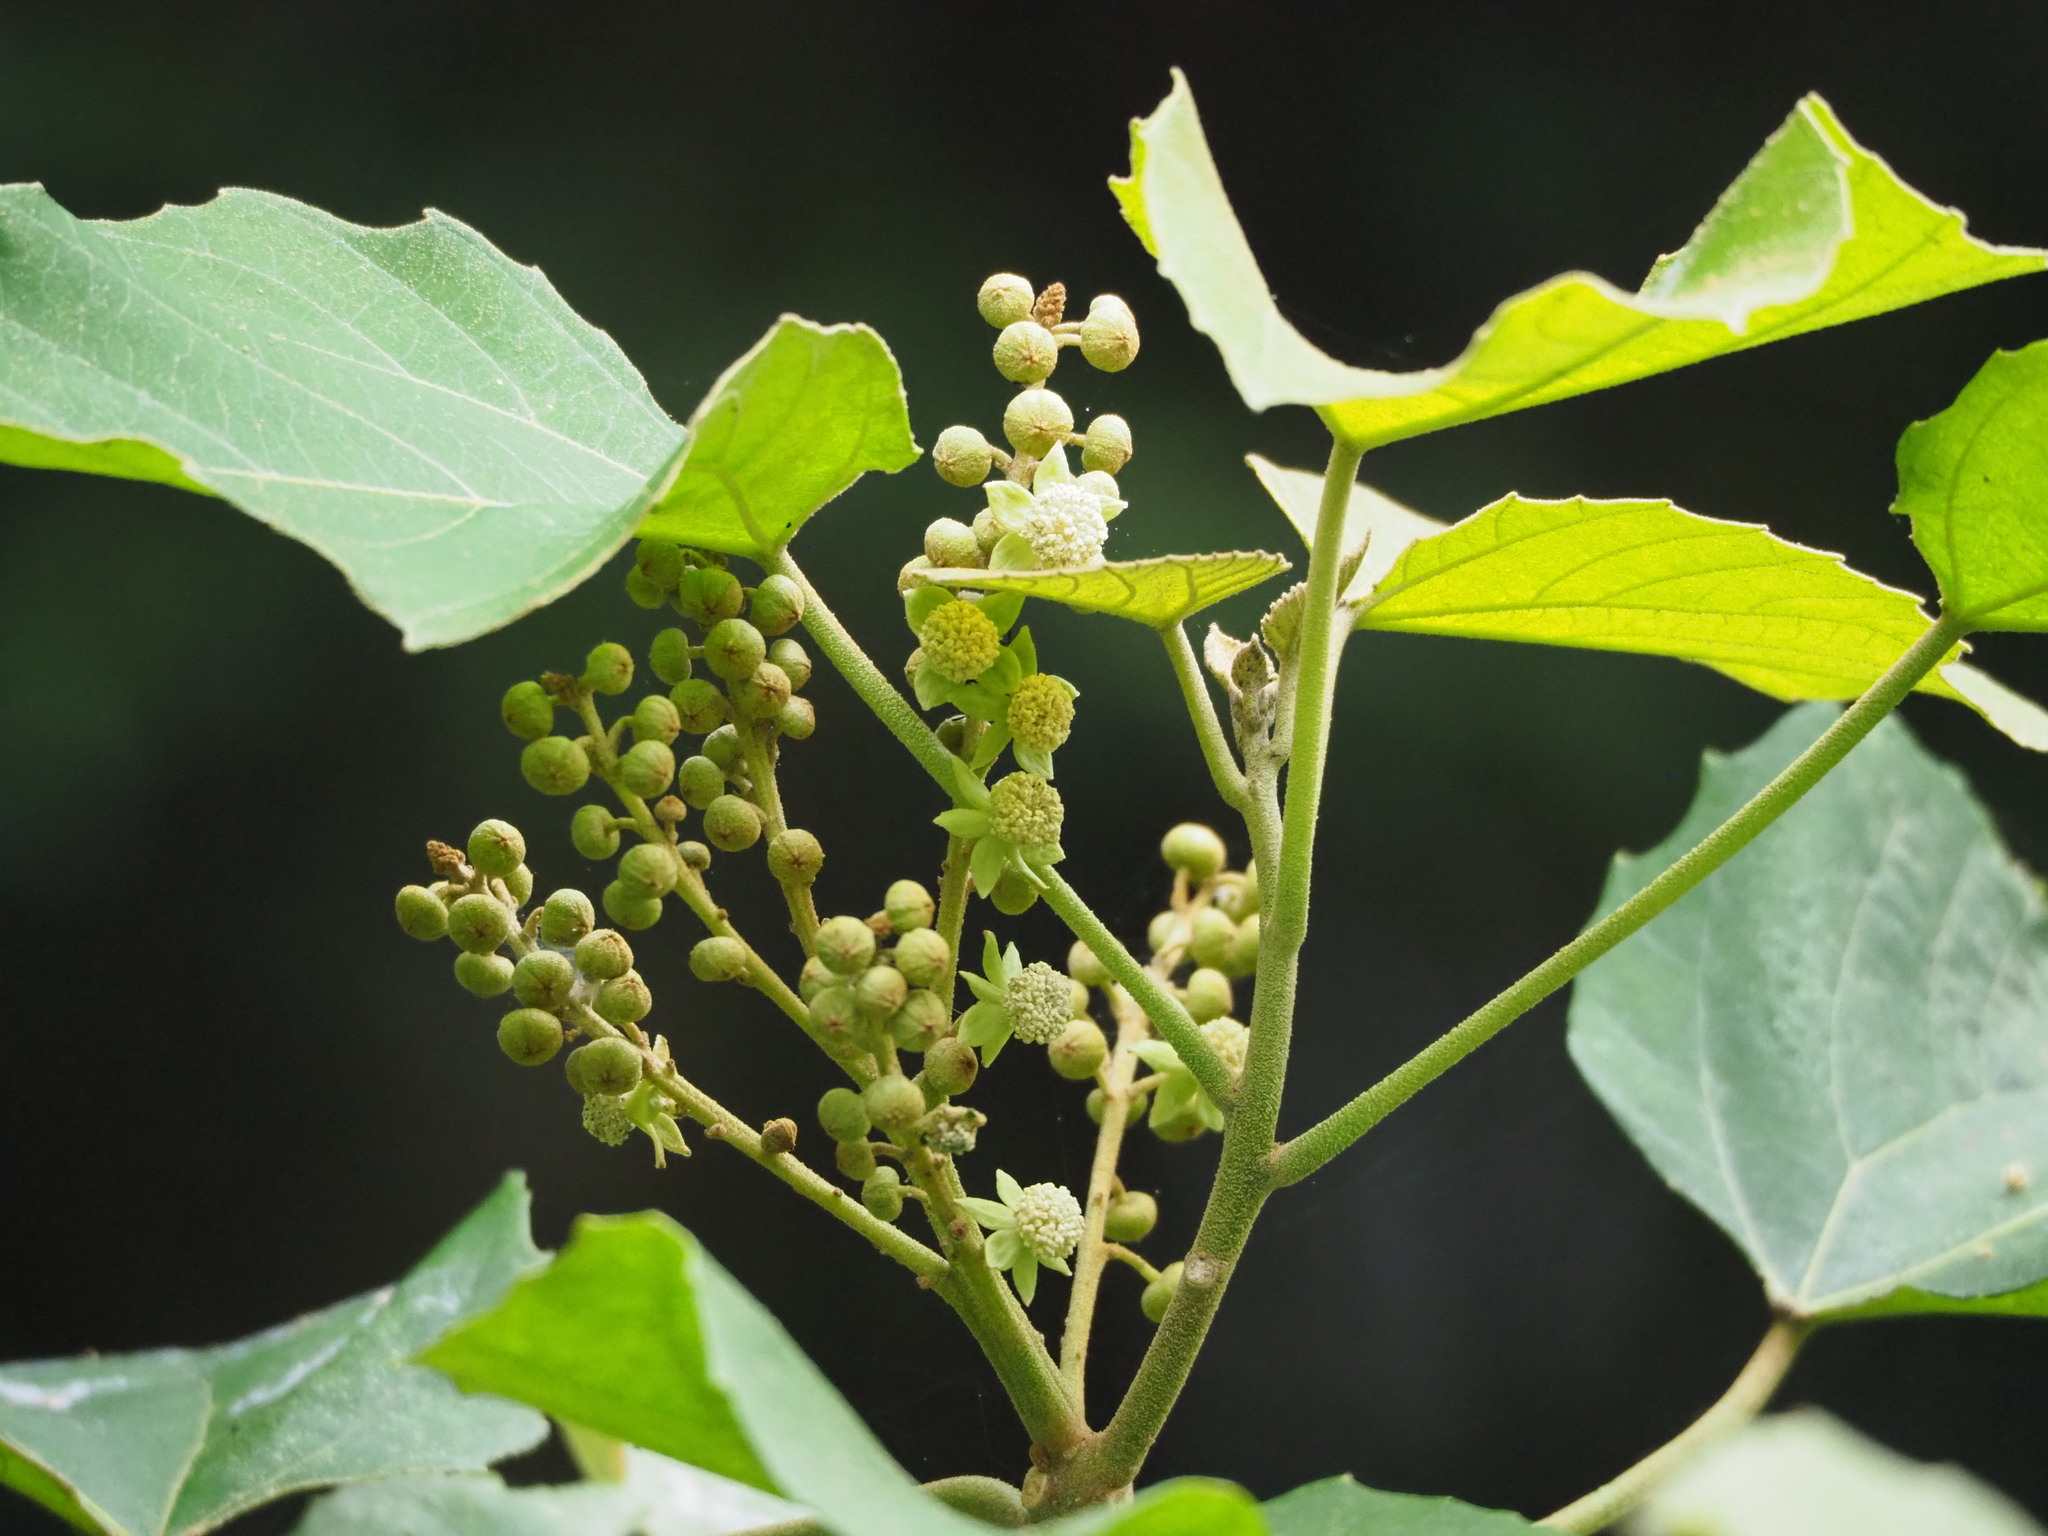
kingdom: Plantae
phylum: Tracheophyta
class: Magnoliopsida
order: Malpighiales
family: Euphorbiaceae
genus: Melanolepis
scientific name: Melanolepis multiglandulosa
